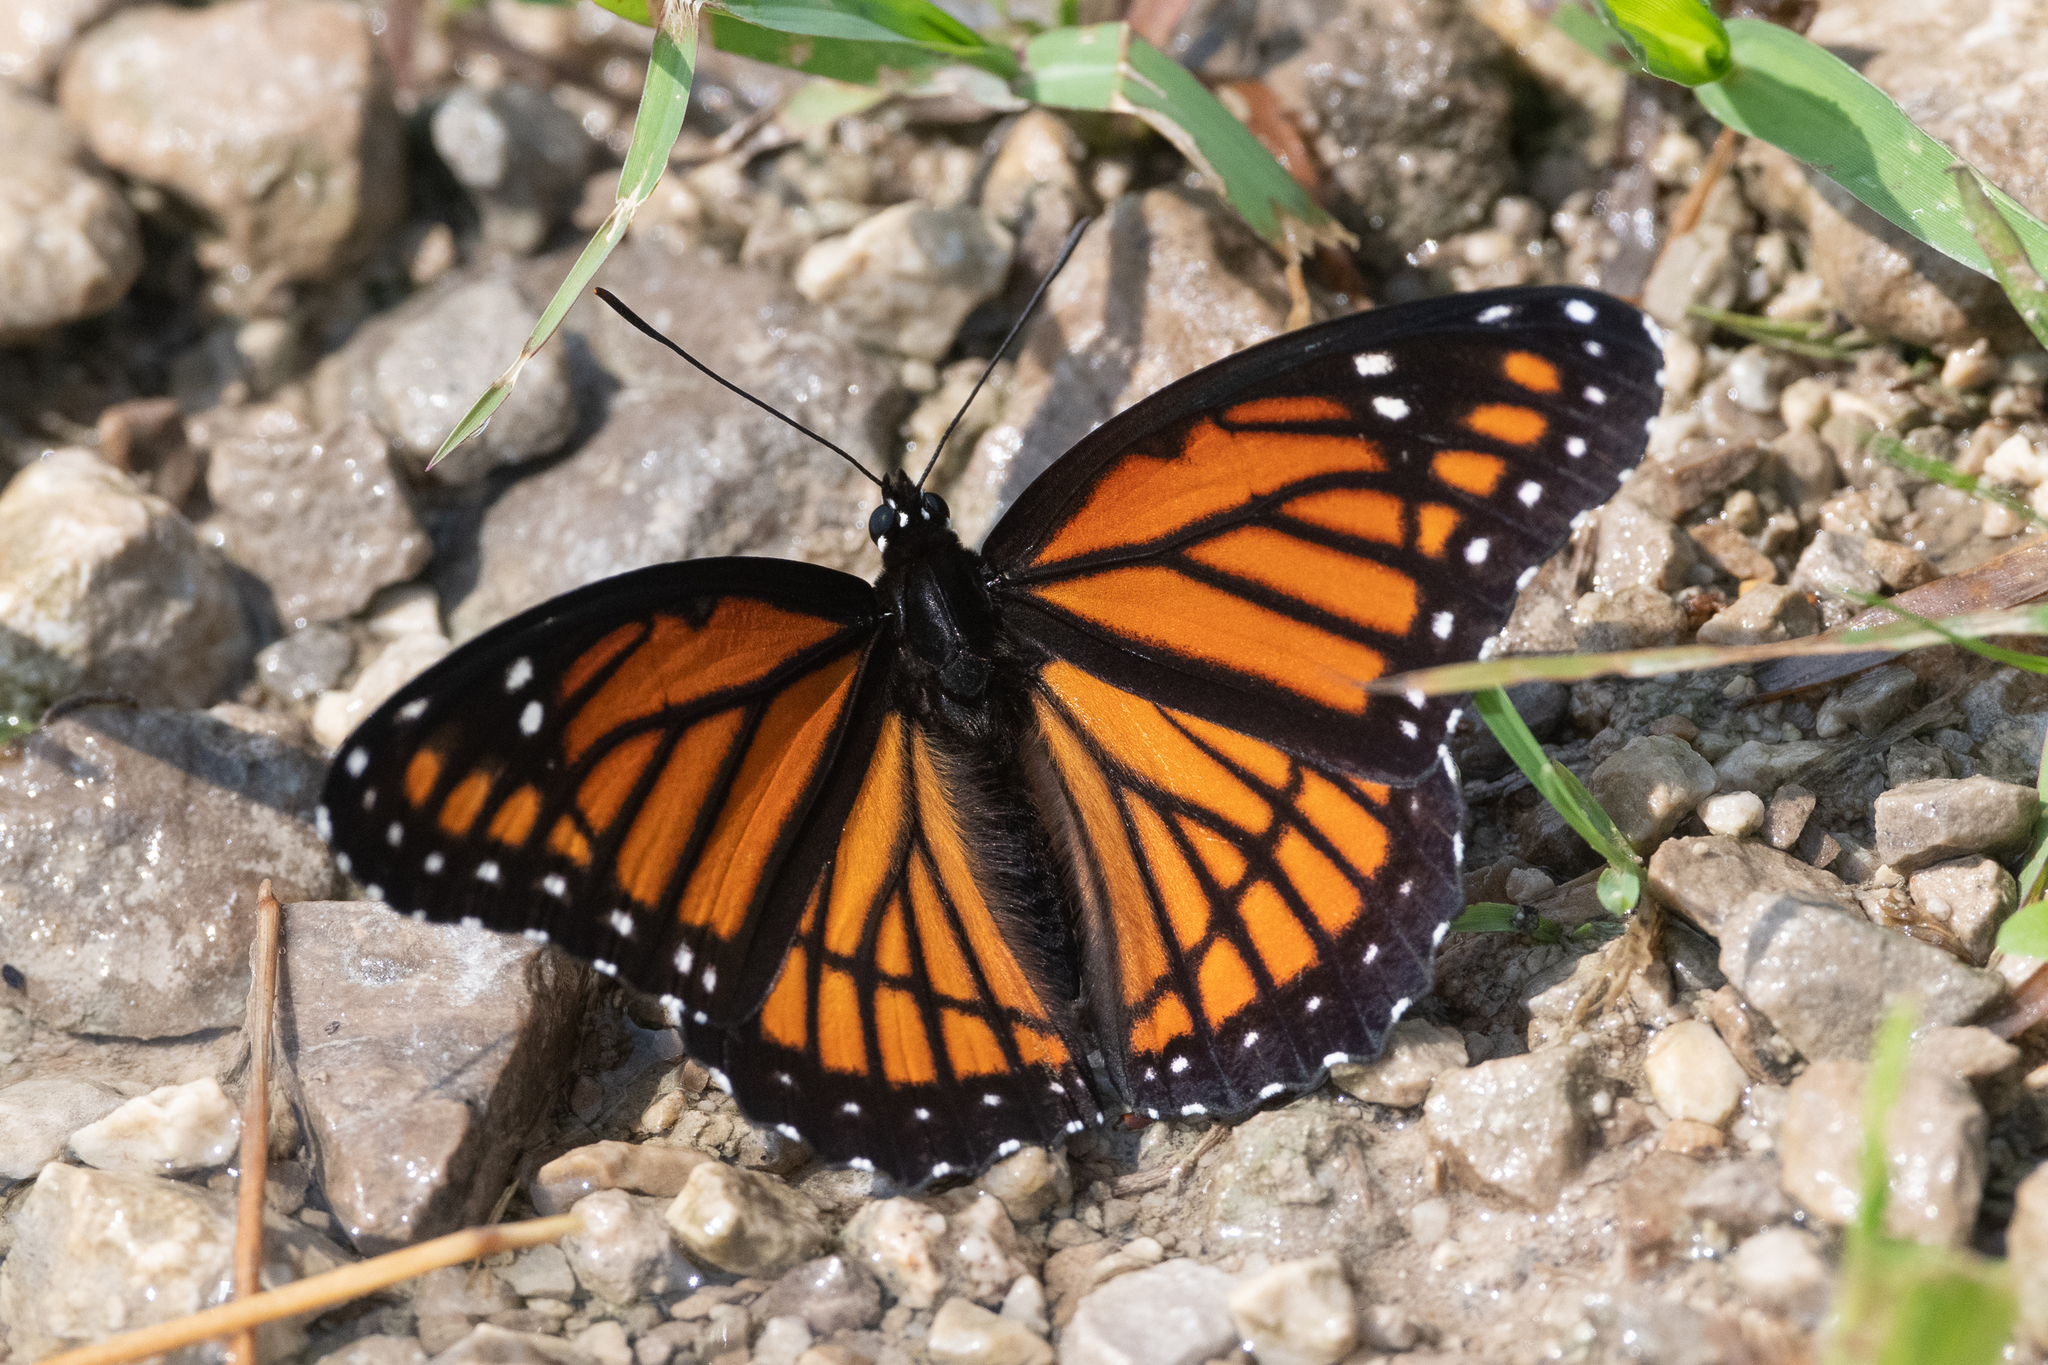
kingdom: Animalia
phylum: Arthropoda
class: Insecta
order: Lepidoptera
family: Nymphalidae
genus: Limenitis
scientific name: Limenitis archippus
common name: Viceroy
